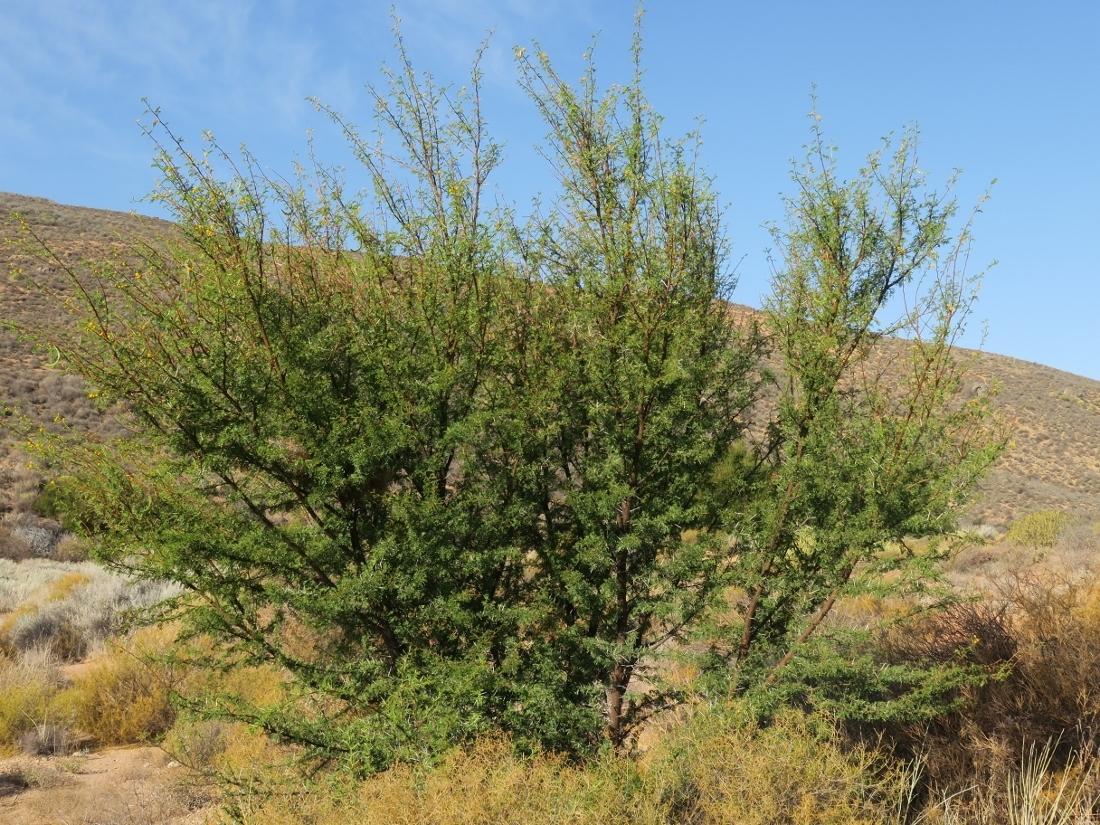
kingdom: Plantae
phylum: Tracheophyta
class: Magnoliopsida
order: Fabales
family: Fabaceae
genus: Vachellia
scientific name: Vachellia karroo
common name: Sweet thorn
